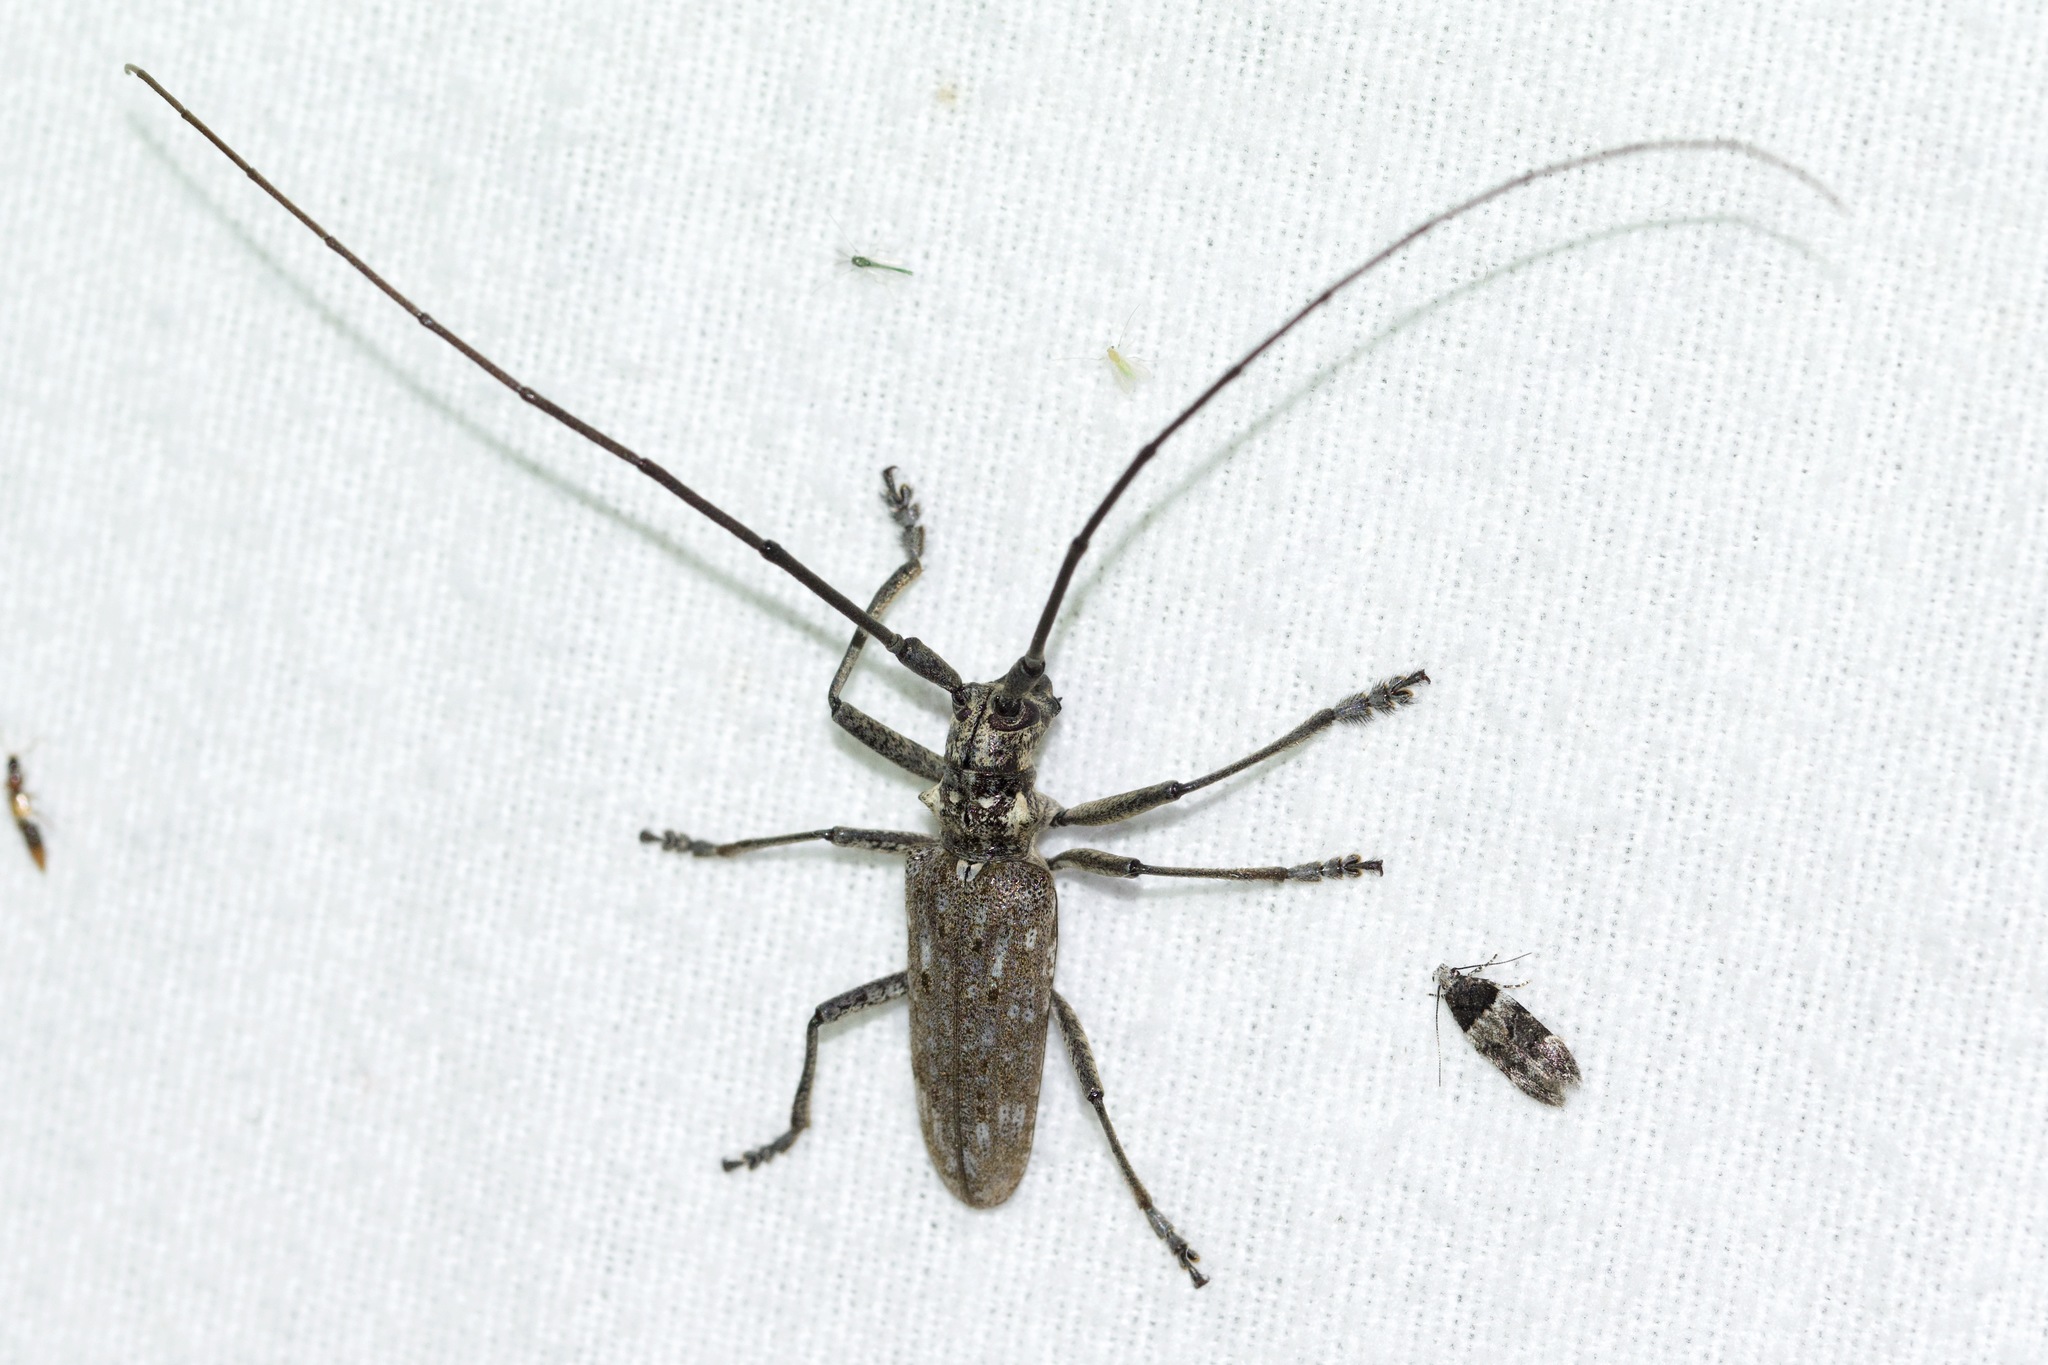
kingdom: Animalia
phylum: Arthropoda
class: Insecta
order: Coleoptera
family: Cerambycidae
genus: Monochamus
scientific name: Monochamus notatus
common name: Northeastern pine sawyer beetle
